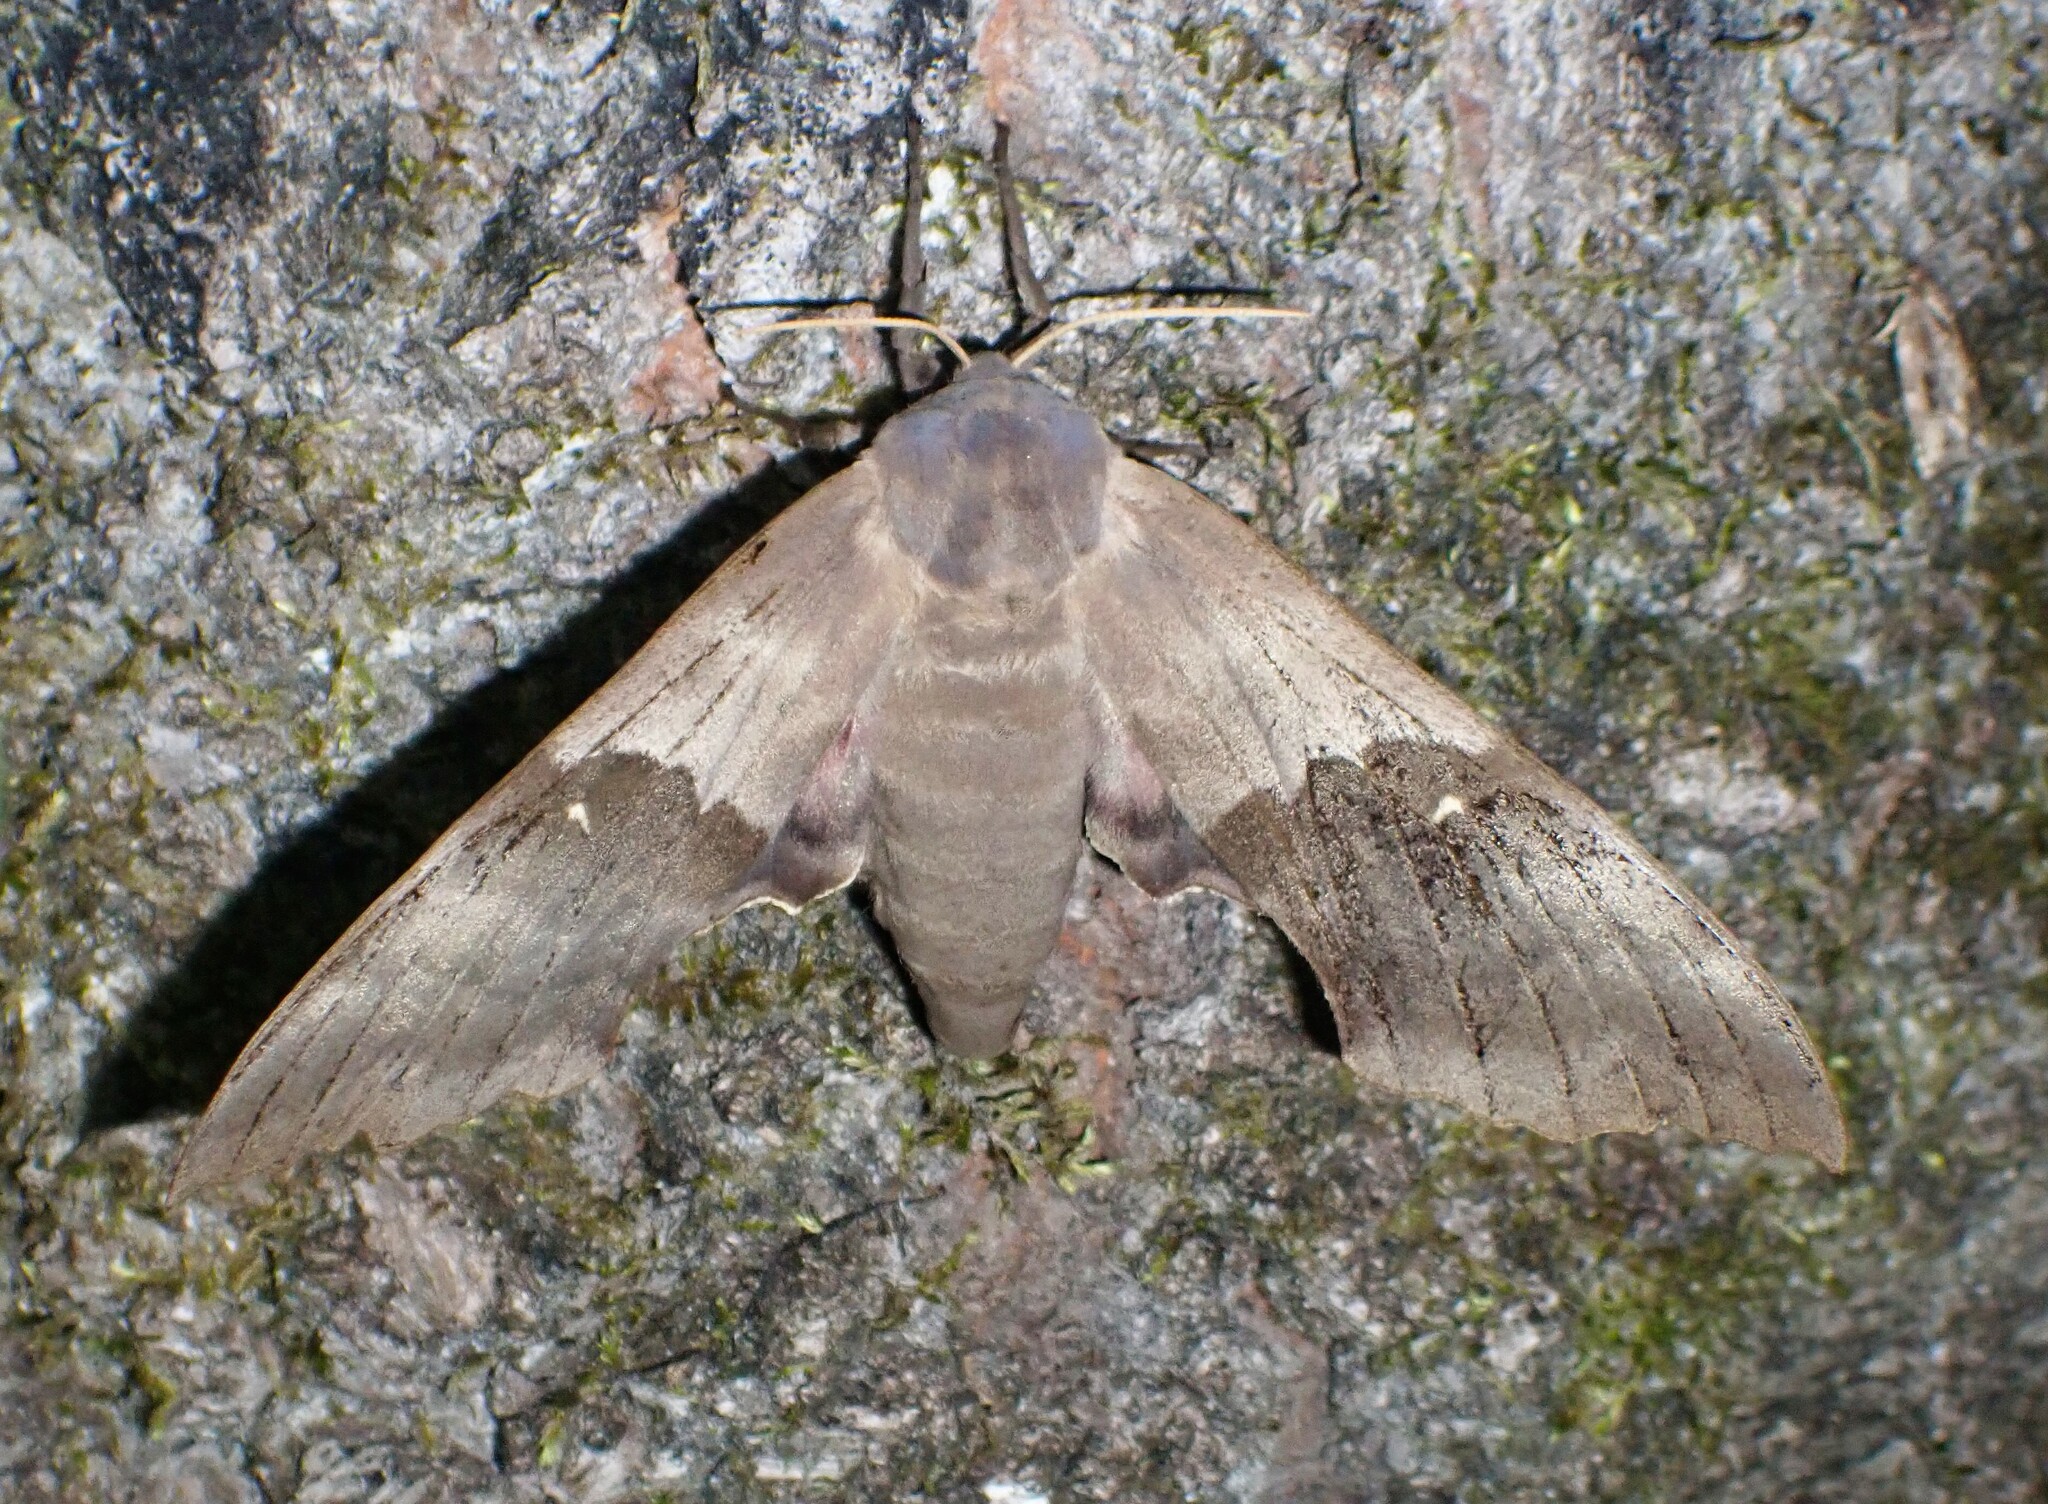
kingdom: Animalia
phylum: Arthropoda
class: Insecta
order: Lepidoptera
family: Sphingidae
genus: Pachysphinx
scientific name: Pachysphinx modesta
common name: Big poplar sphinx
